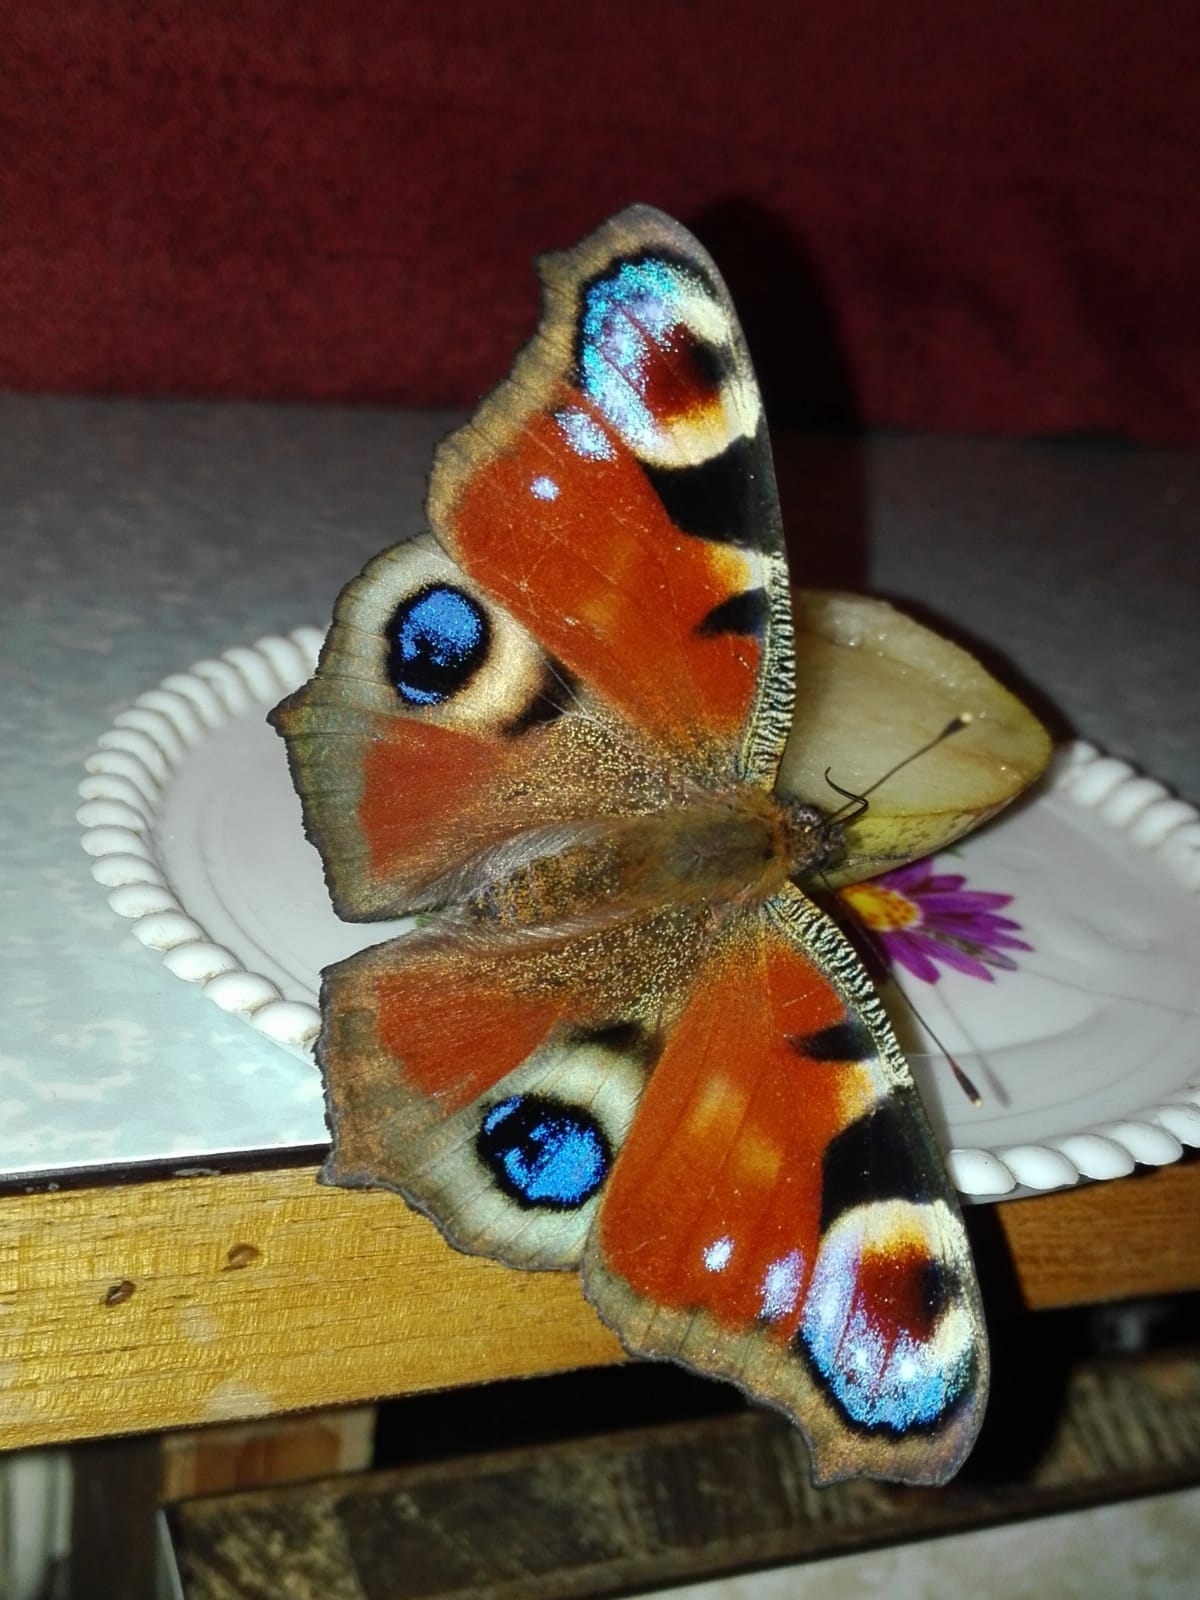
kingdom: Animalia
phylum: Arthropoda
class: Insecta
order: Lepidoptera
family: Nymphalidae
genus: Aglais
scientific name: Aglais io
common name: Peacock
